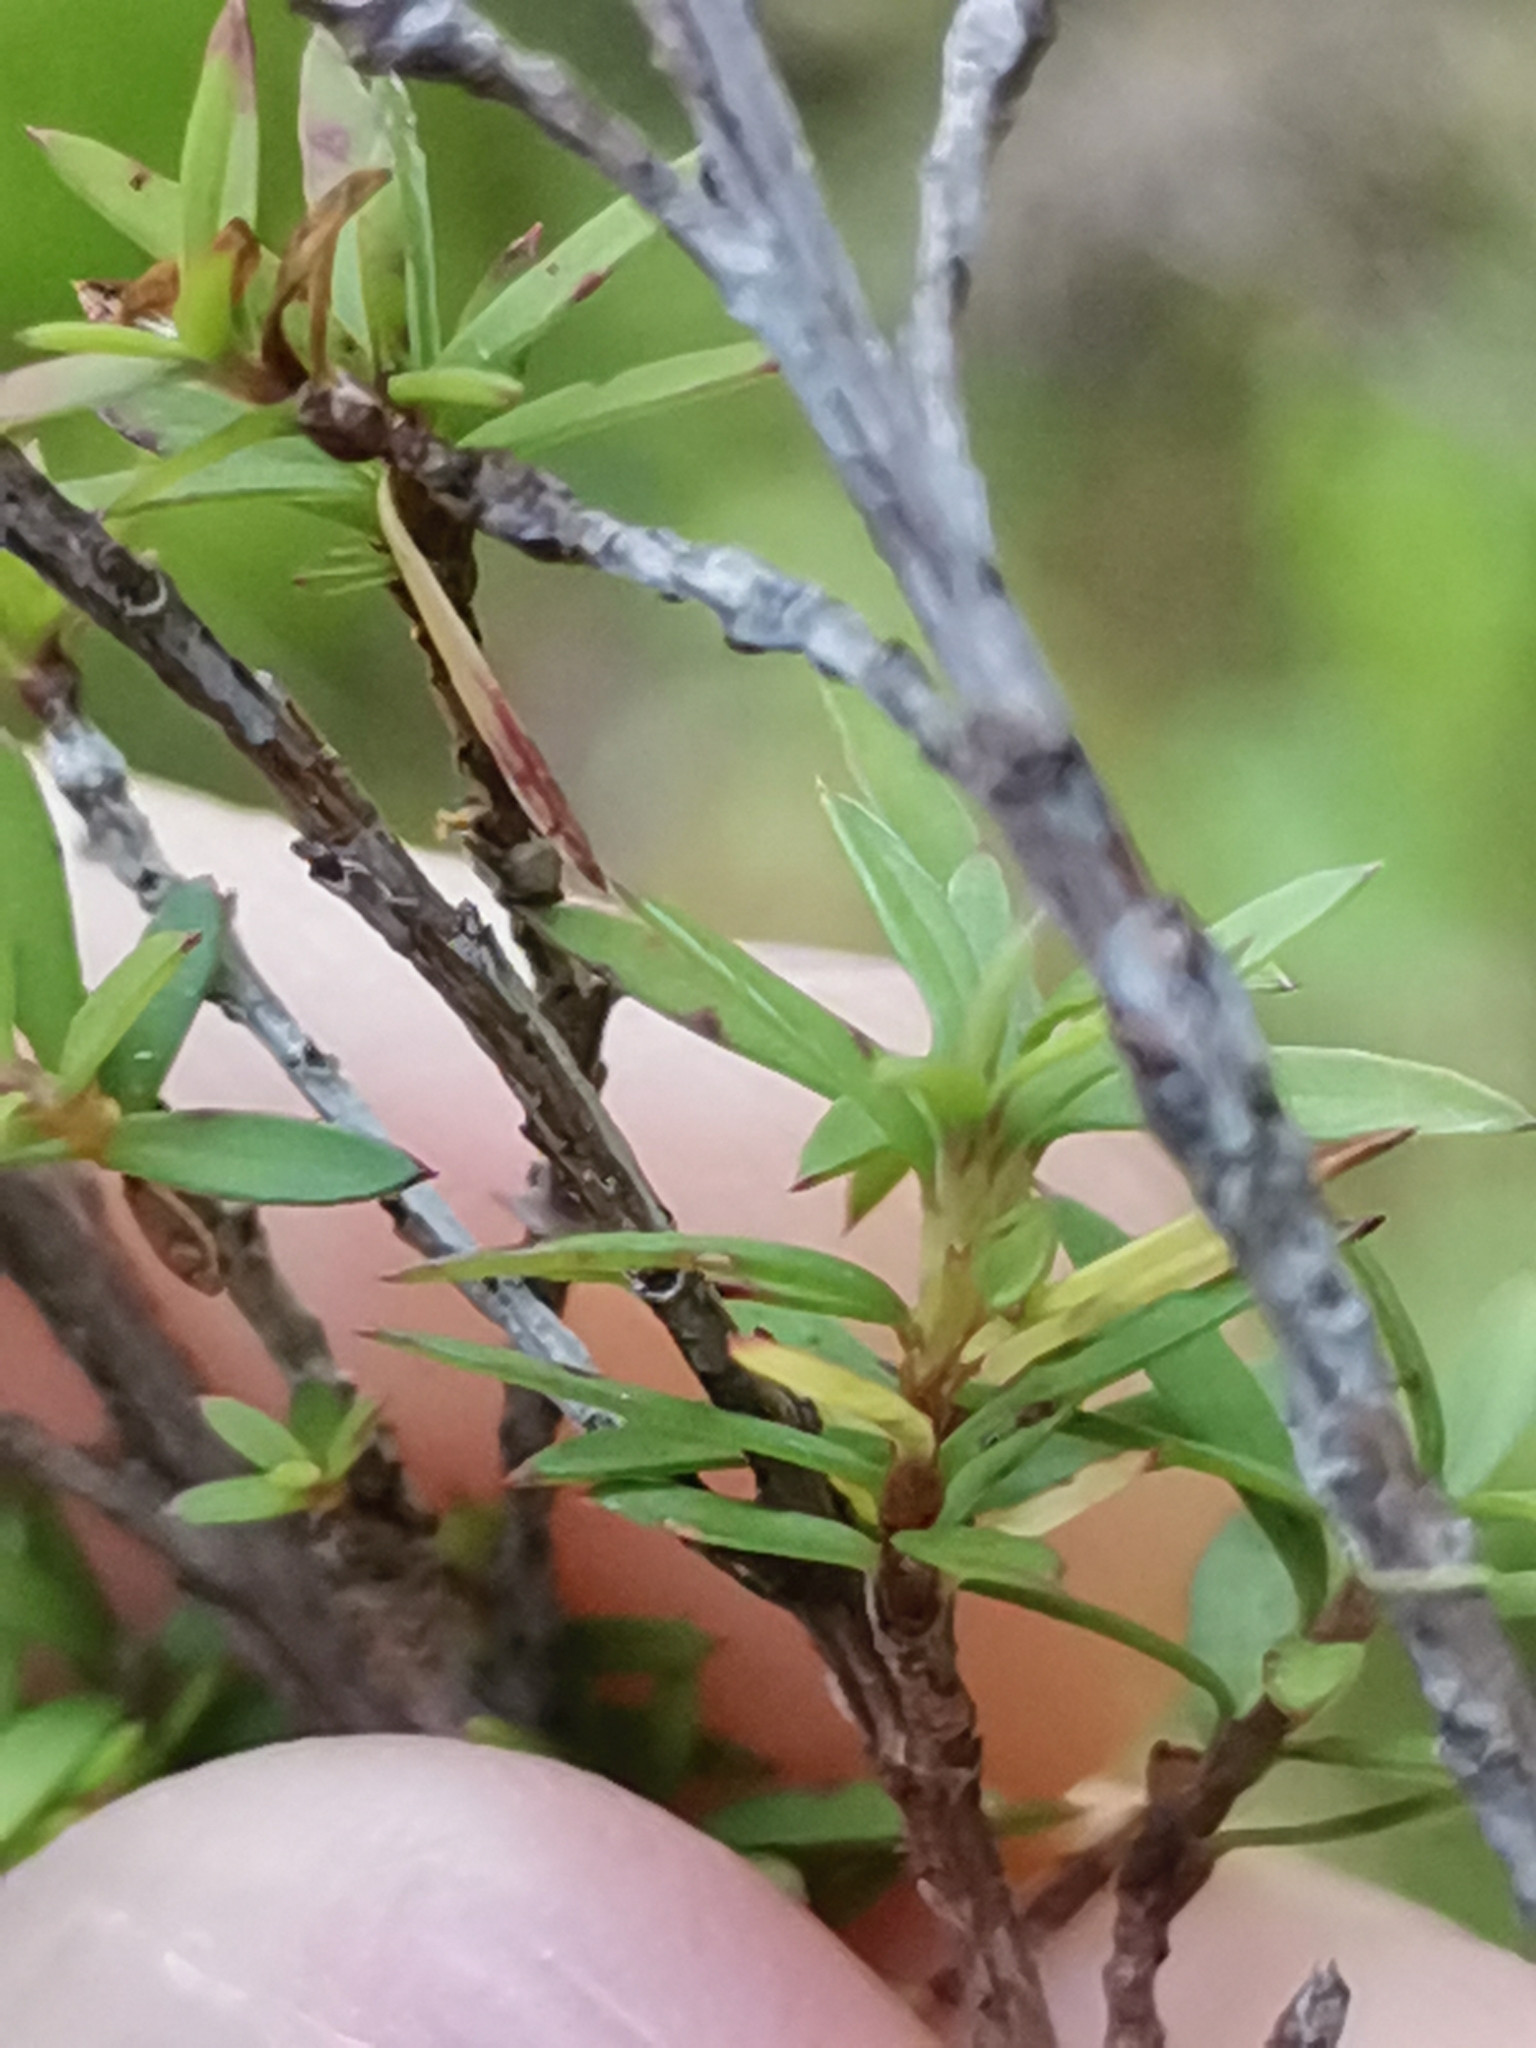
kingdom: Plantae
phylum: Tracheophyta
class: Magnoliopsida
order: Myrtales
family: Myrtaceae
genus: Leptospermum
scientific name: Leptospermum scoparium
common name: Broom tea-tree
